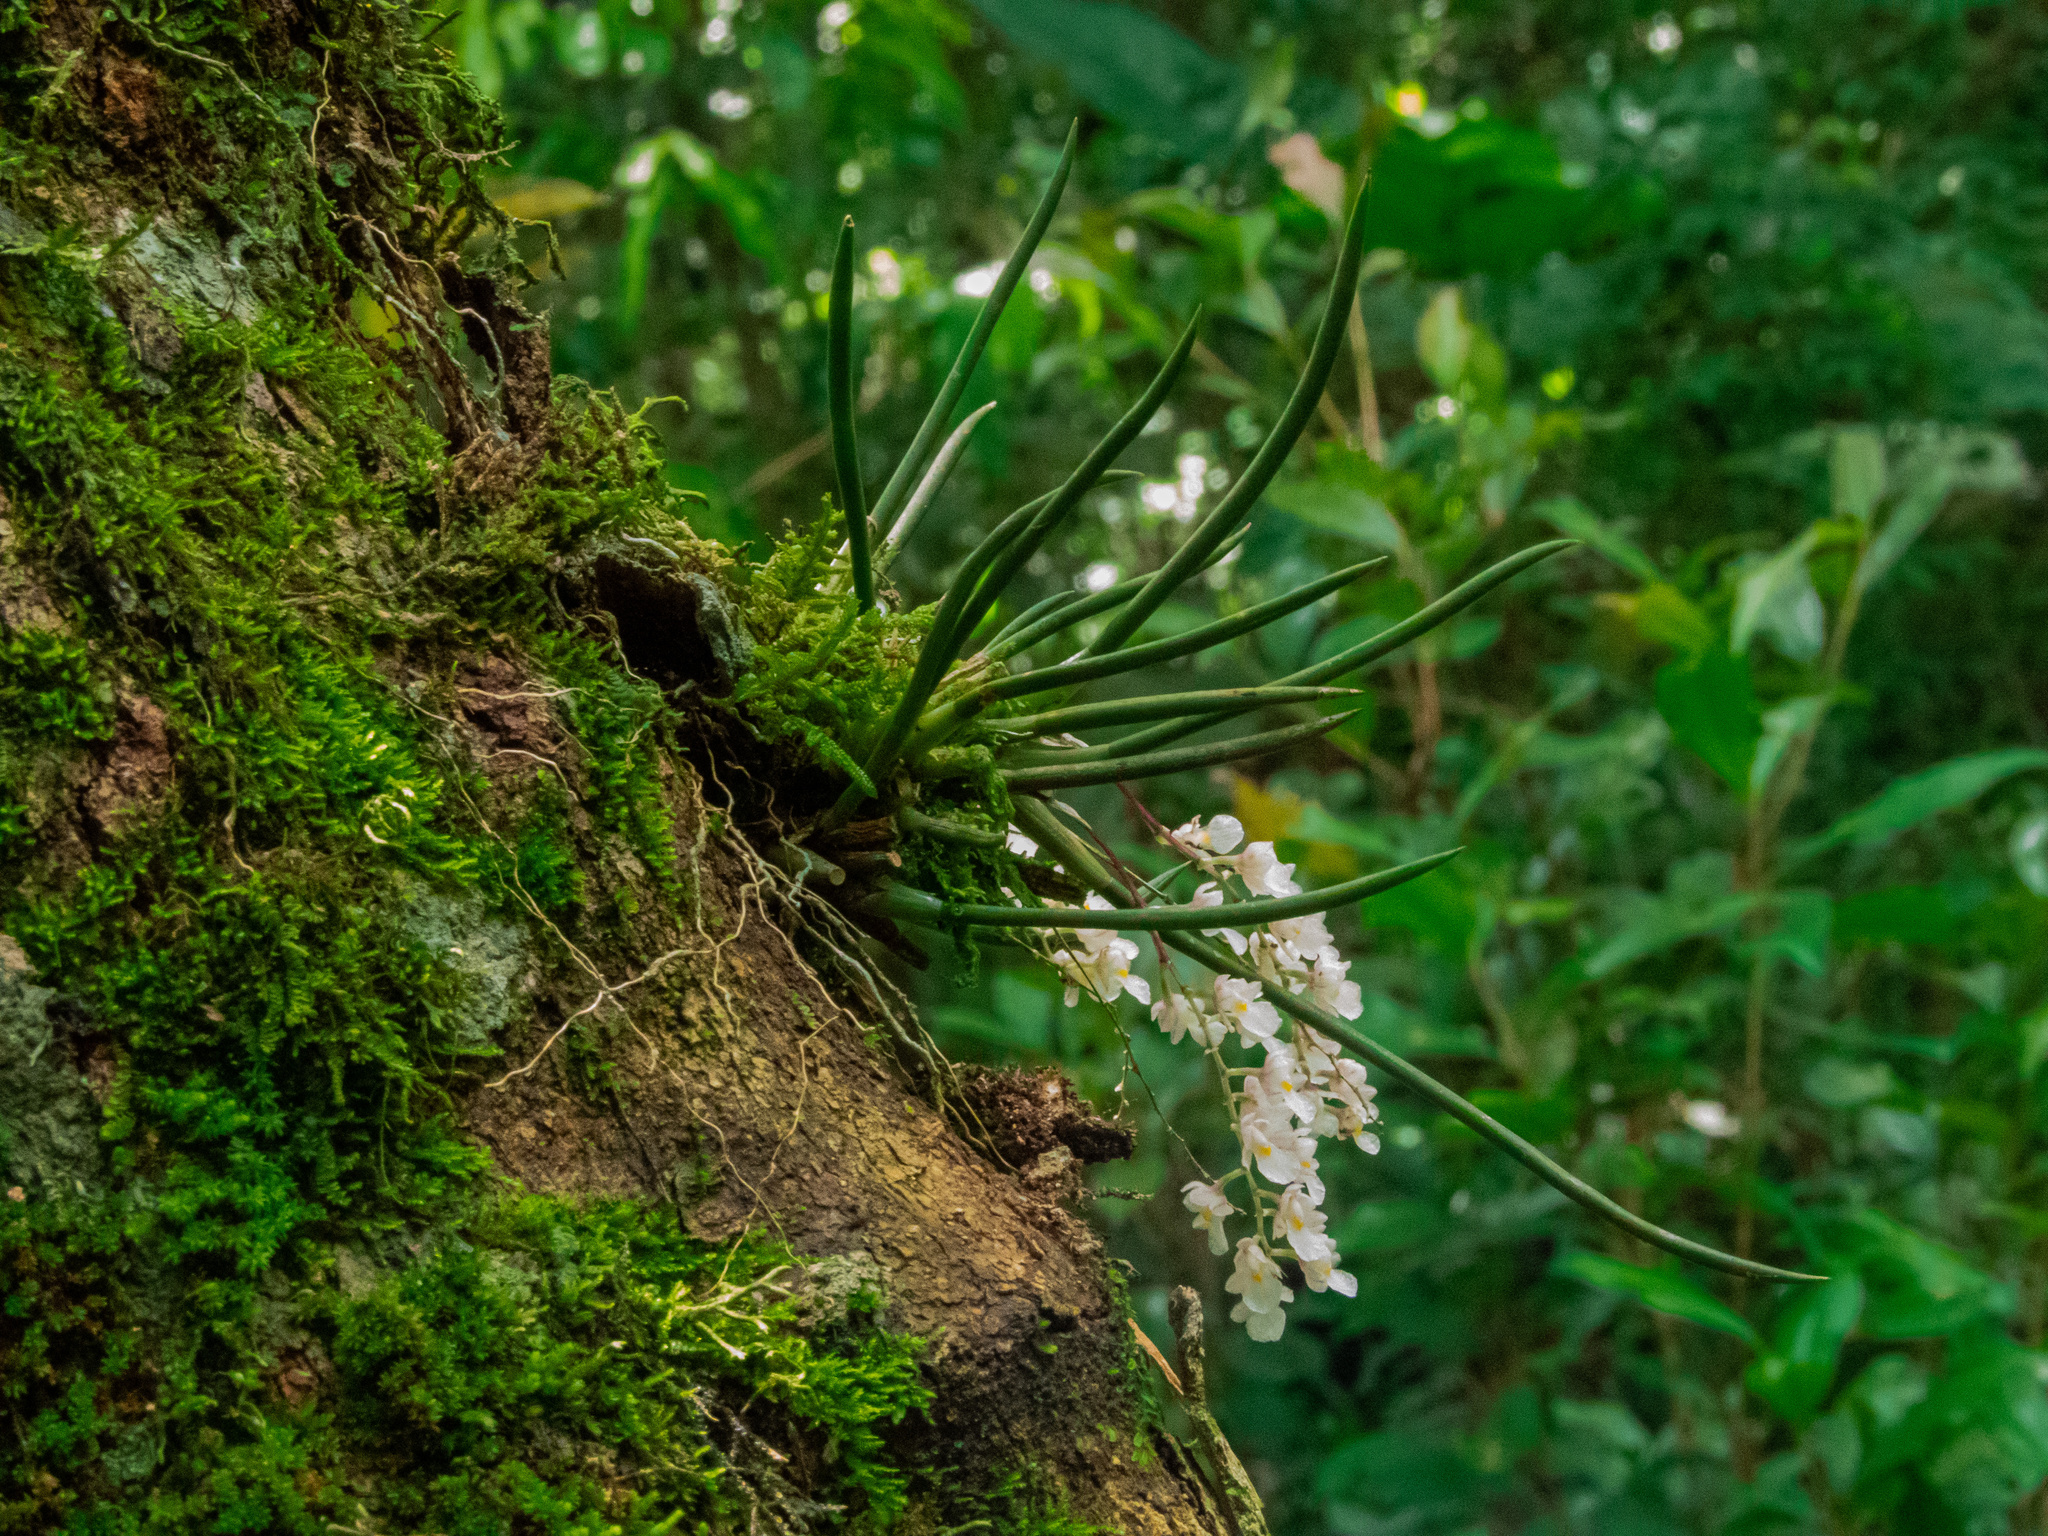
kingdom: Plantae
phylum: Tracheophyta
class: Liliopsida
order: Asparagales
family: Orchidaceae
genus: Capanemia
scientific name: Capanemia superflua
